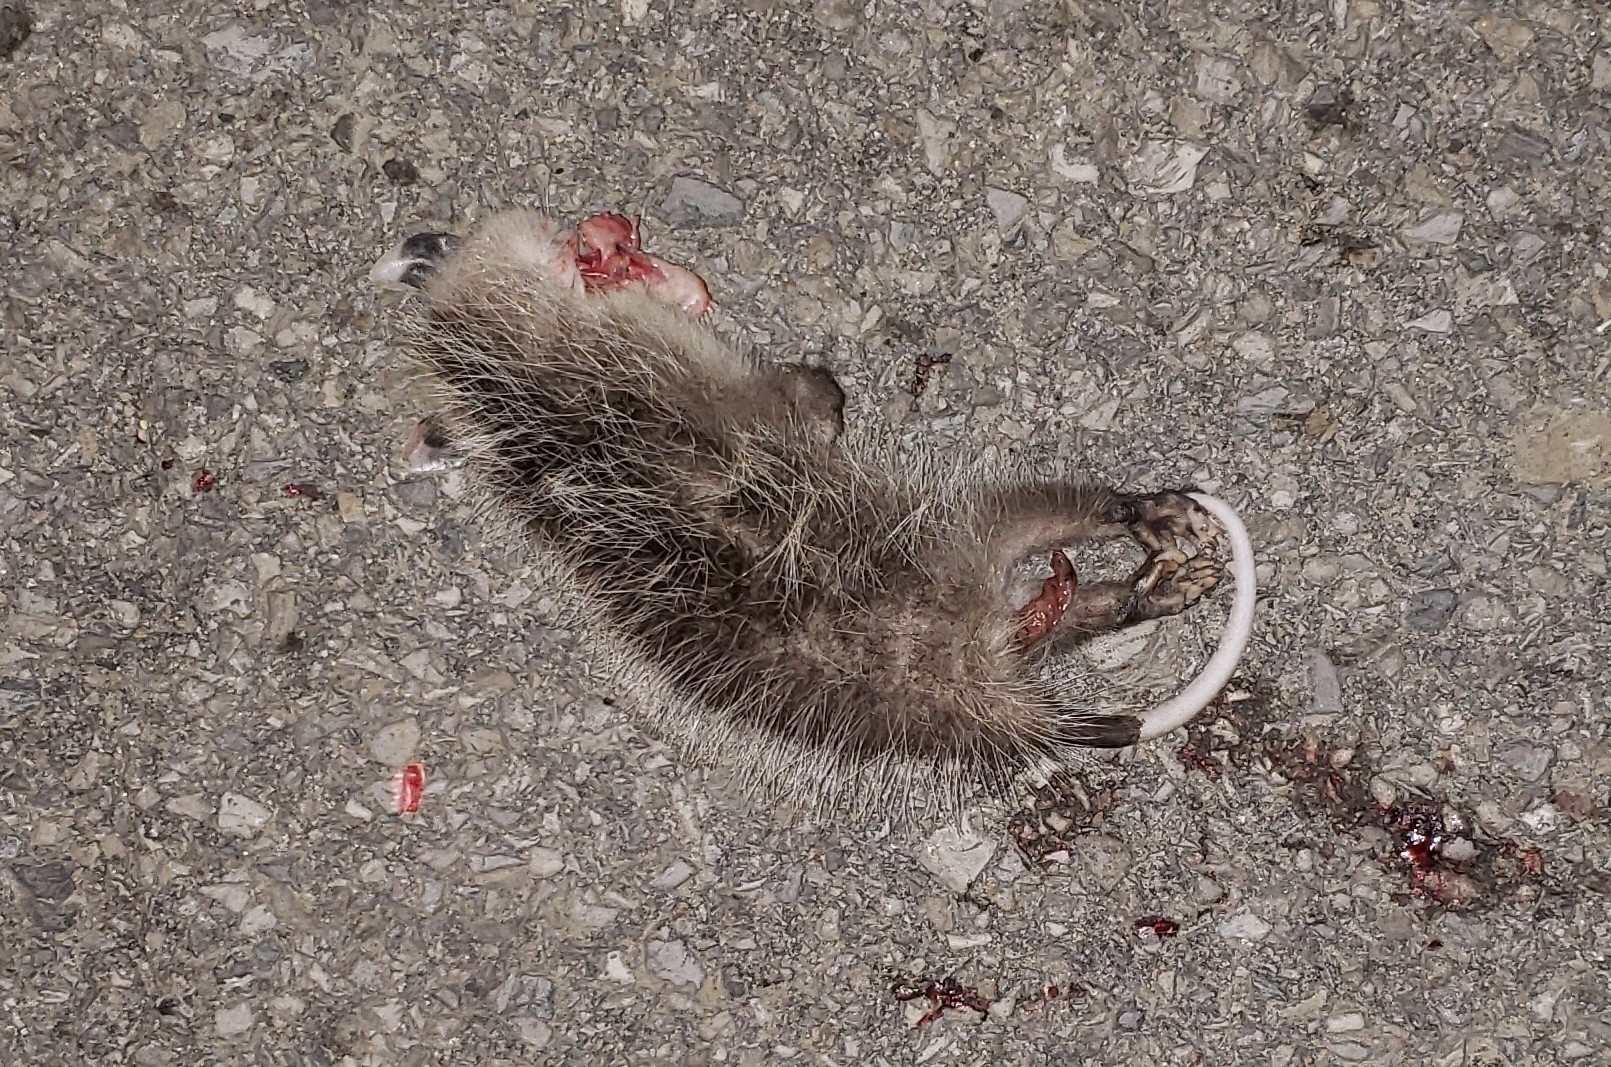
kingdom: Animalia
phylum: Chordata
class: Mammalia
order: Didelphimorphia
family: Didelphidae
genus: Didelphis
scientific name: Didelphis virginiana
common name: Virginia opossum
